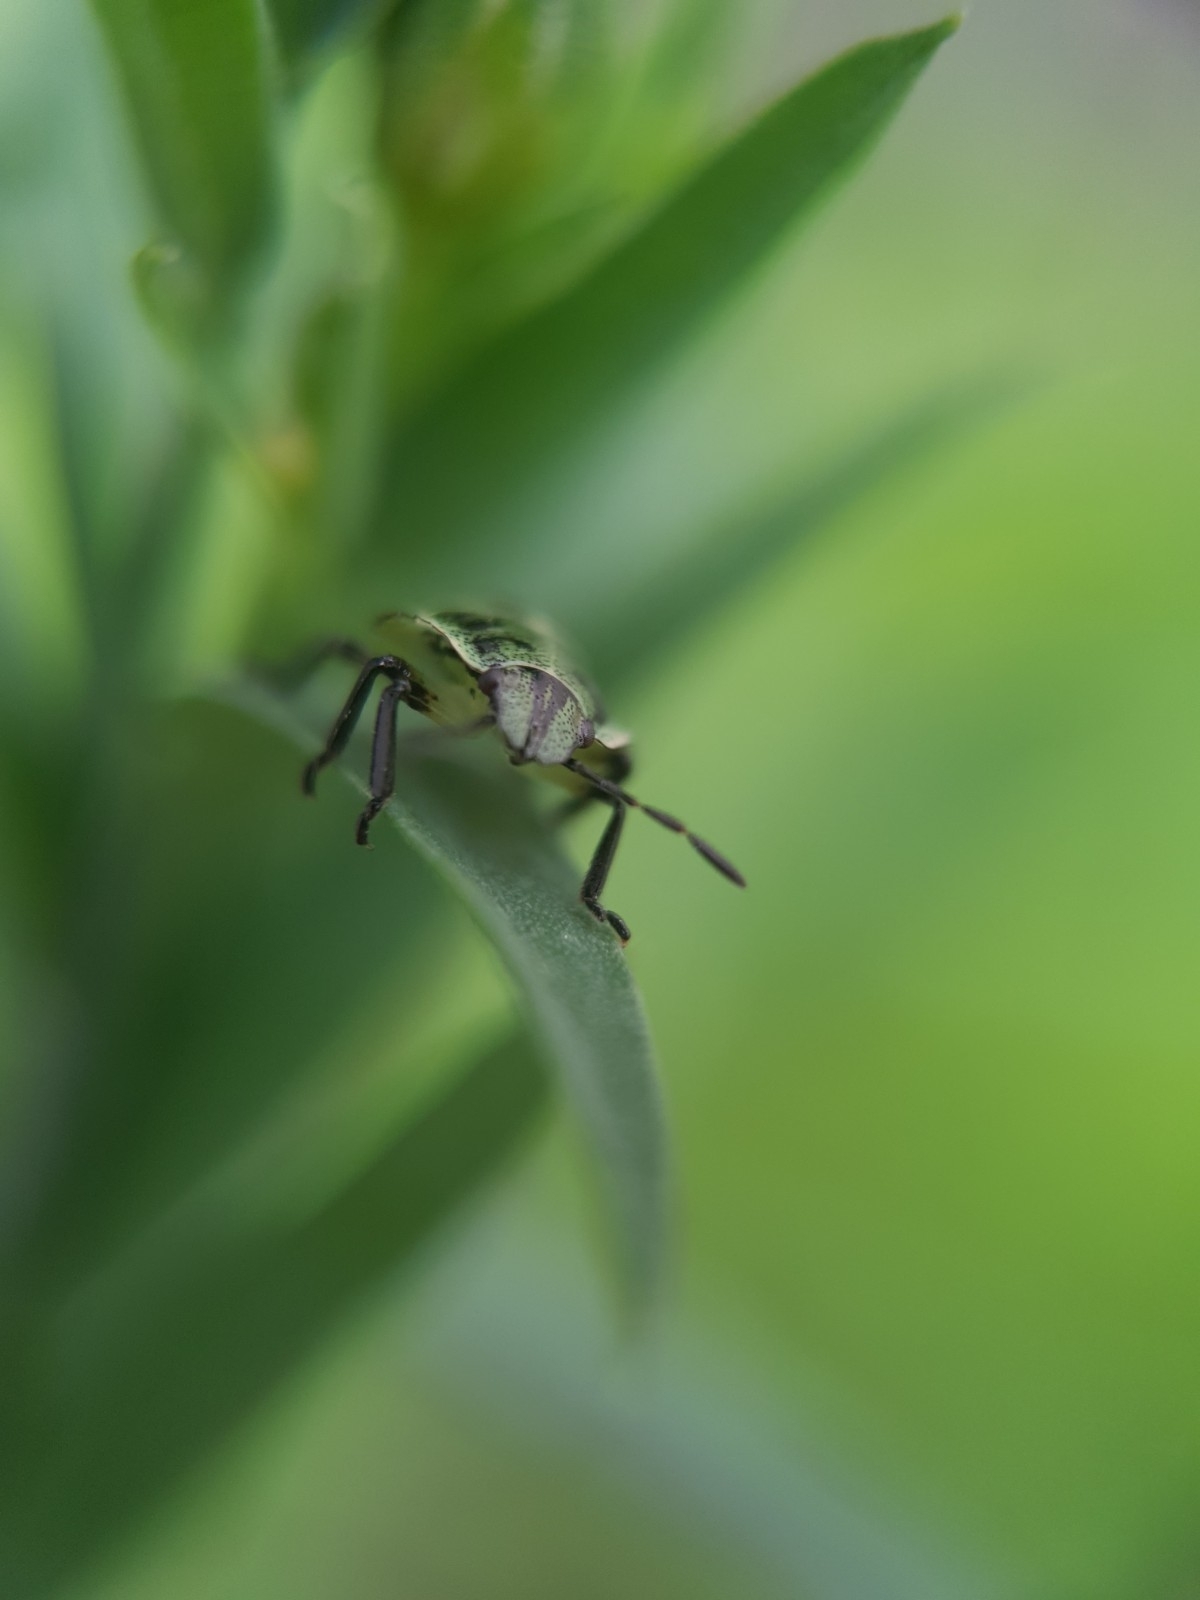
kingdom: Animalia
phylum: Arthropoda
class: Insecta
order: Hemiptera
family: Pentatomidae
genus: Palomena
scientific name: Palomena prasina
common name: Green shieldbug
